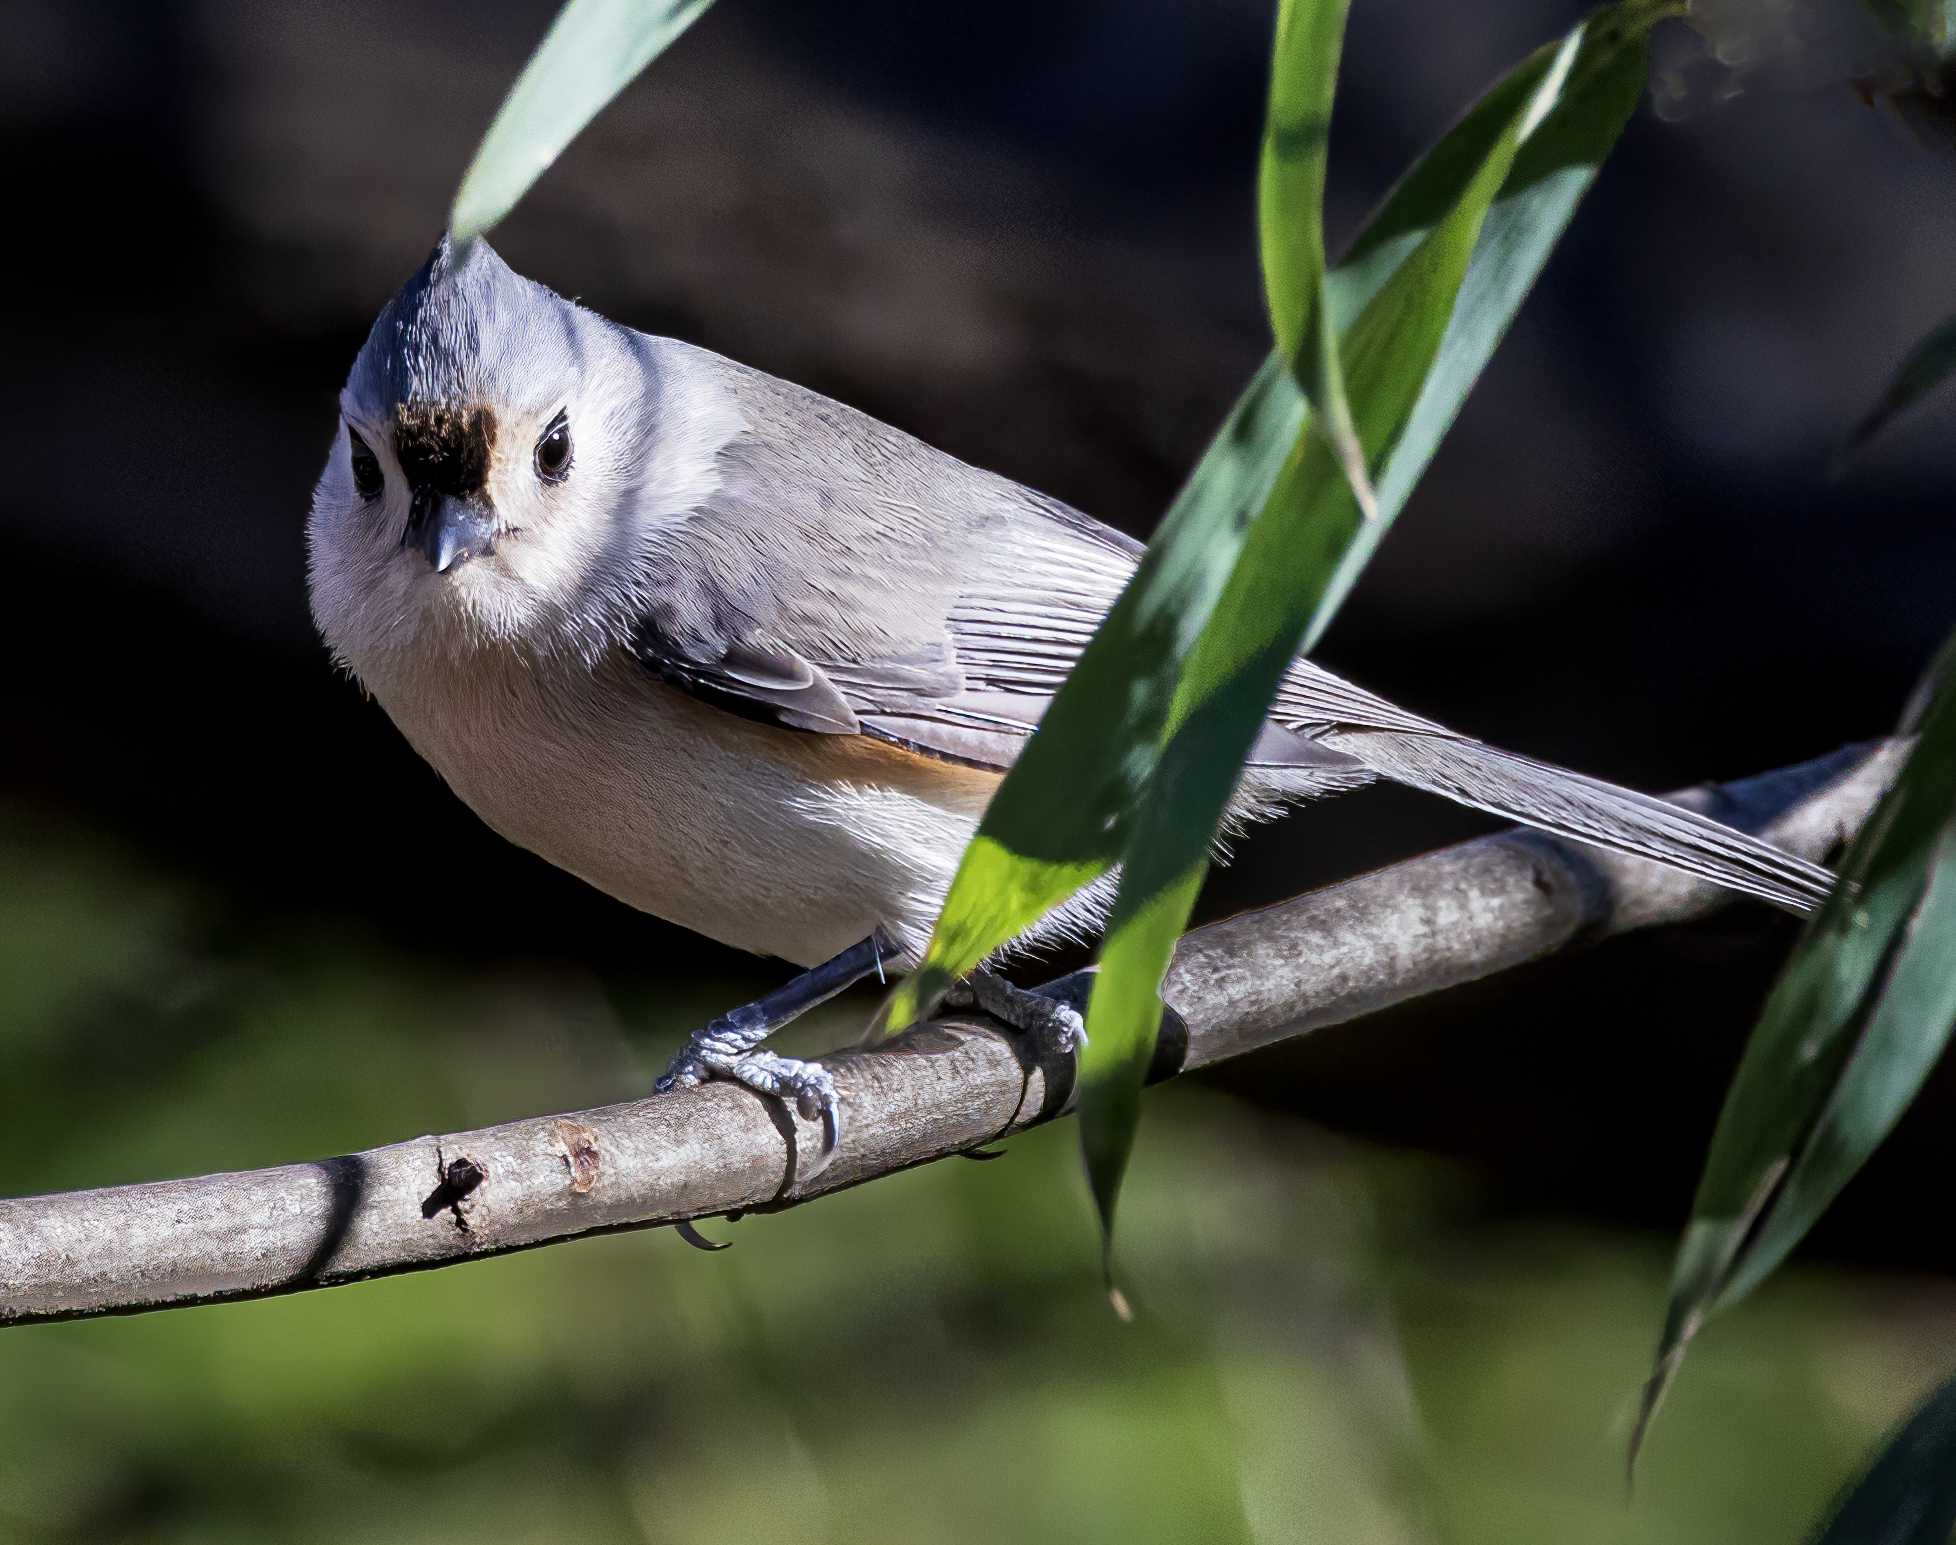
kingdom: Animalia
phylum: Chordata
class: Aves
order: Passeriformes
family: Paridae
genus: Baeolophus
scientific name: Baeolophus bicolor
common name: Tufted titmouse
